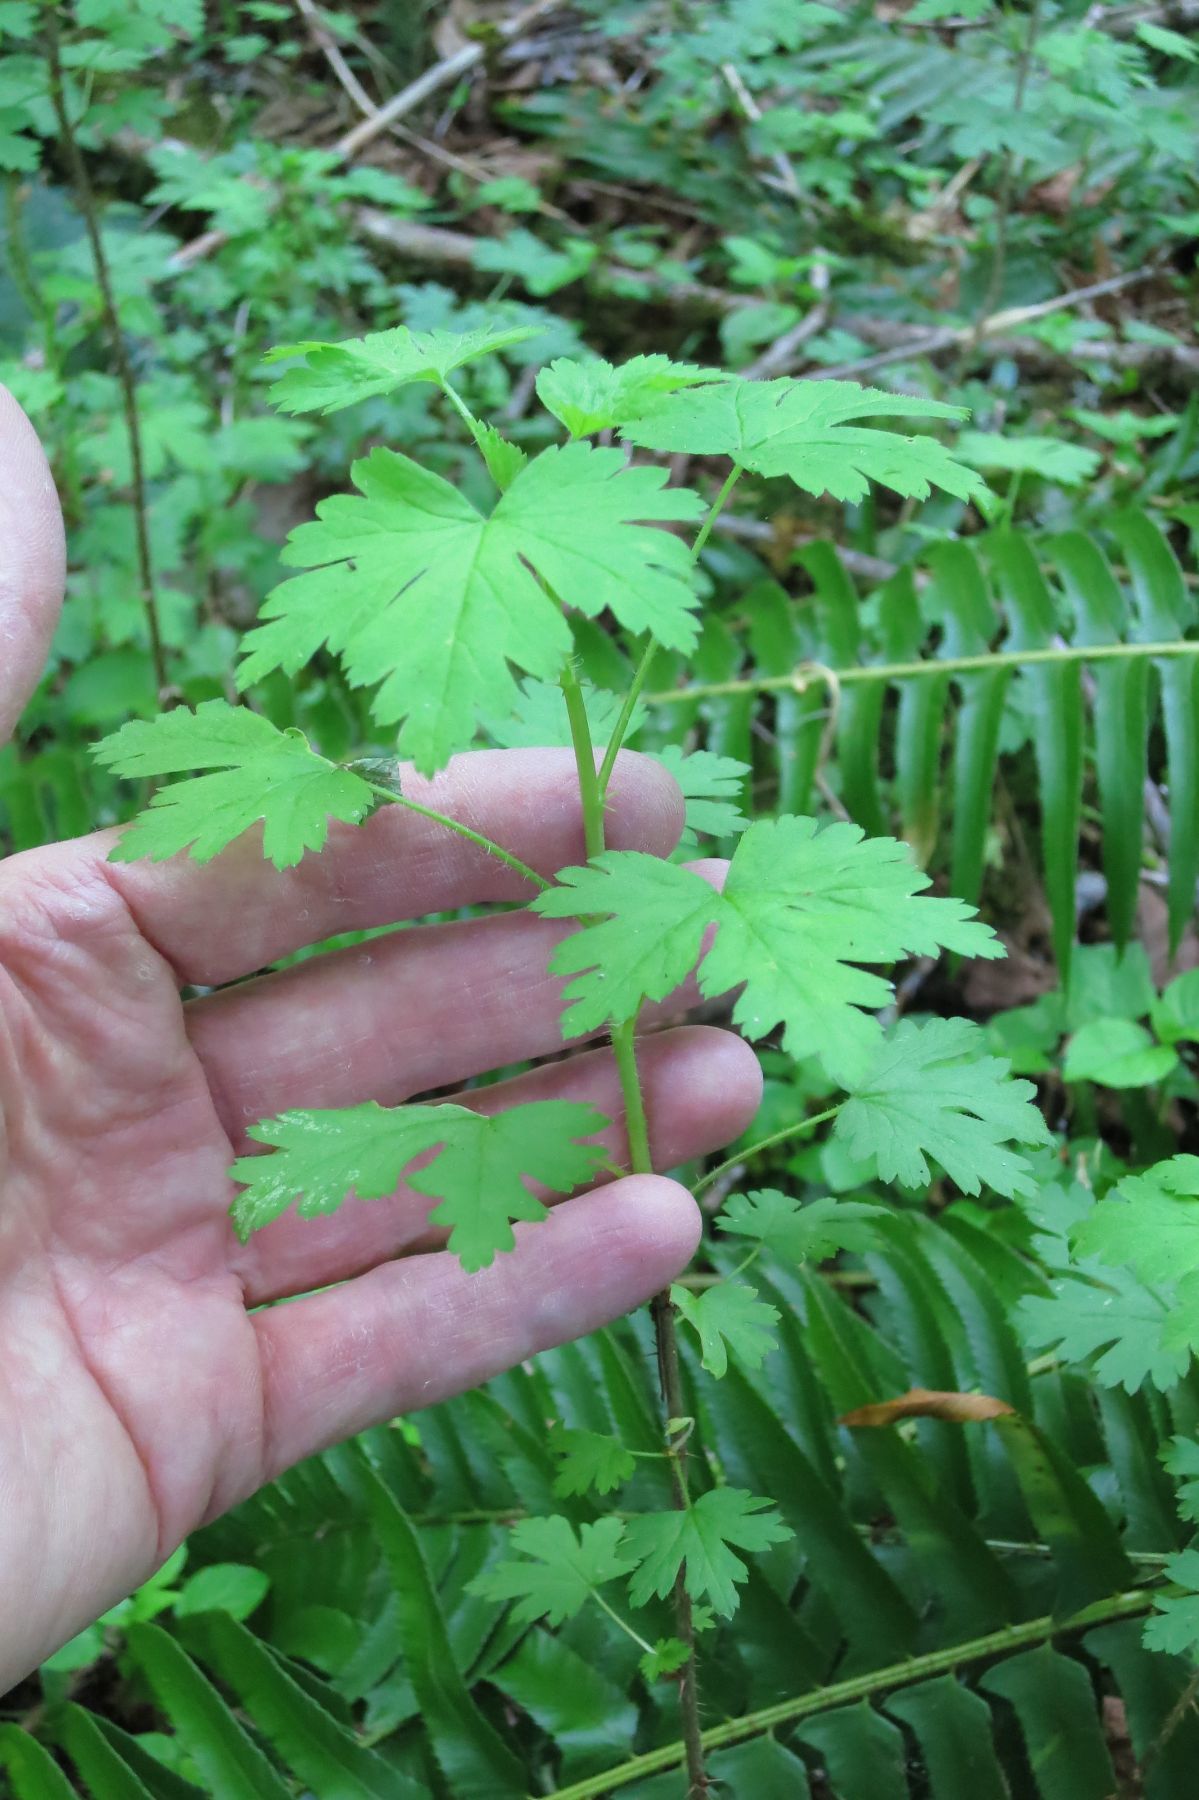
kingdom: Plantae
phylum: Tracheophyta
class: Magnoliopsida
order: Saxifragales
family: Grossulariaceae
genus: Ribes
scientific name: Ribes divaricatum
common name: Wild black gooseberry
